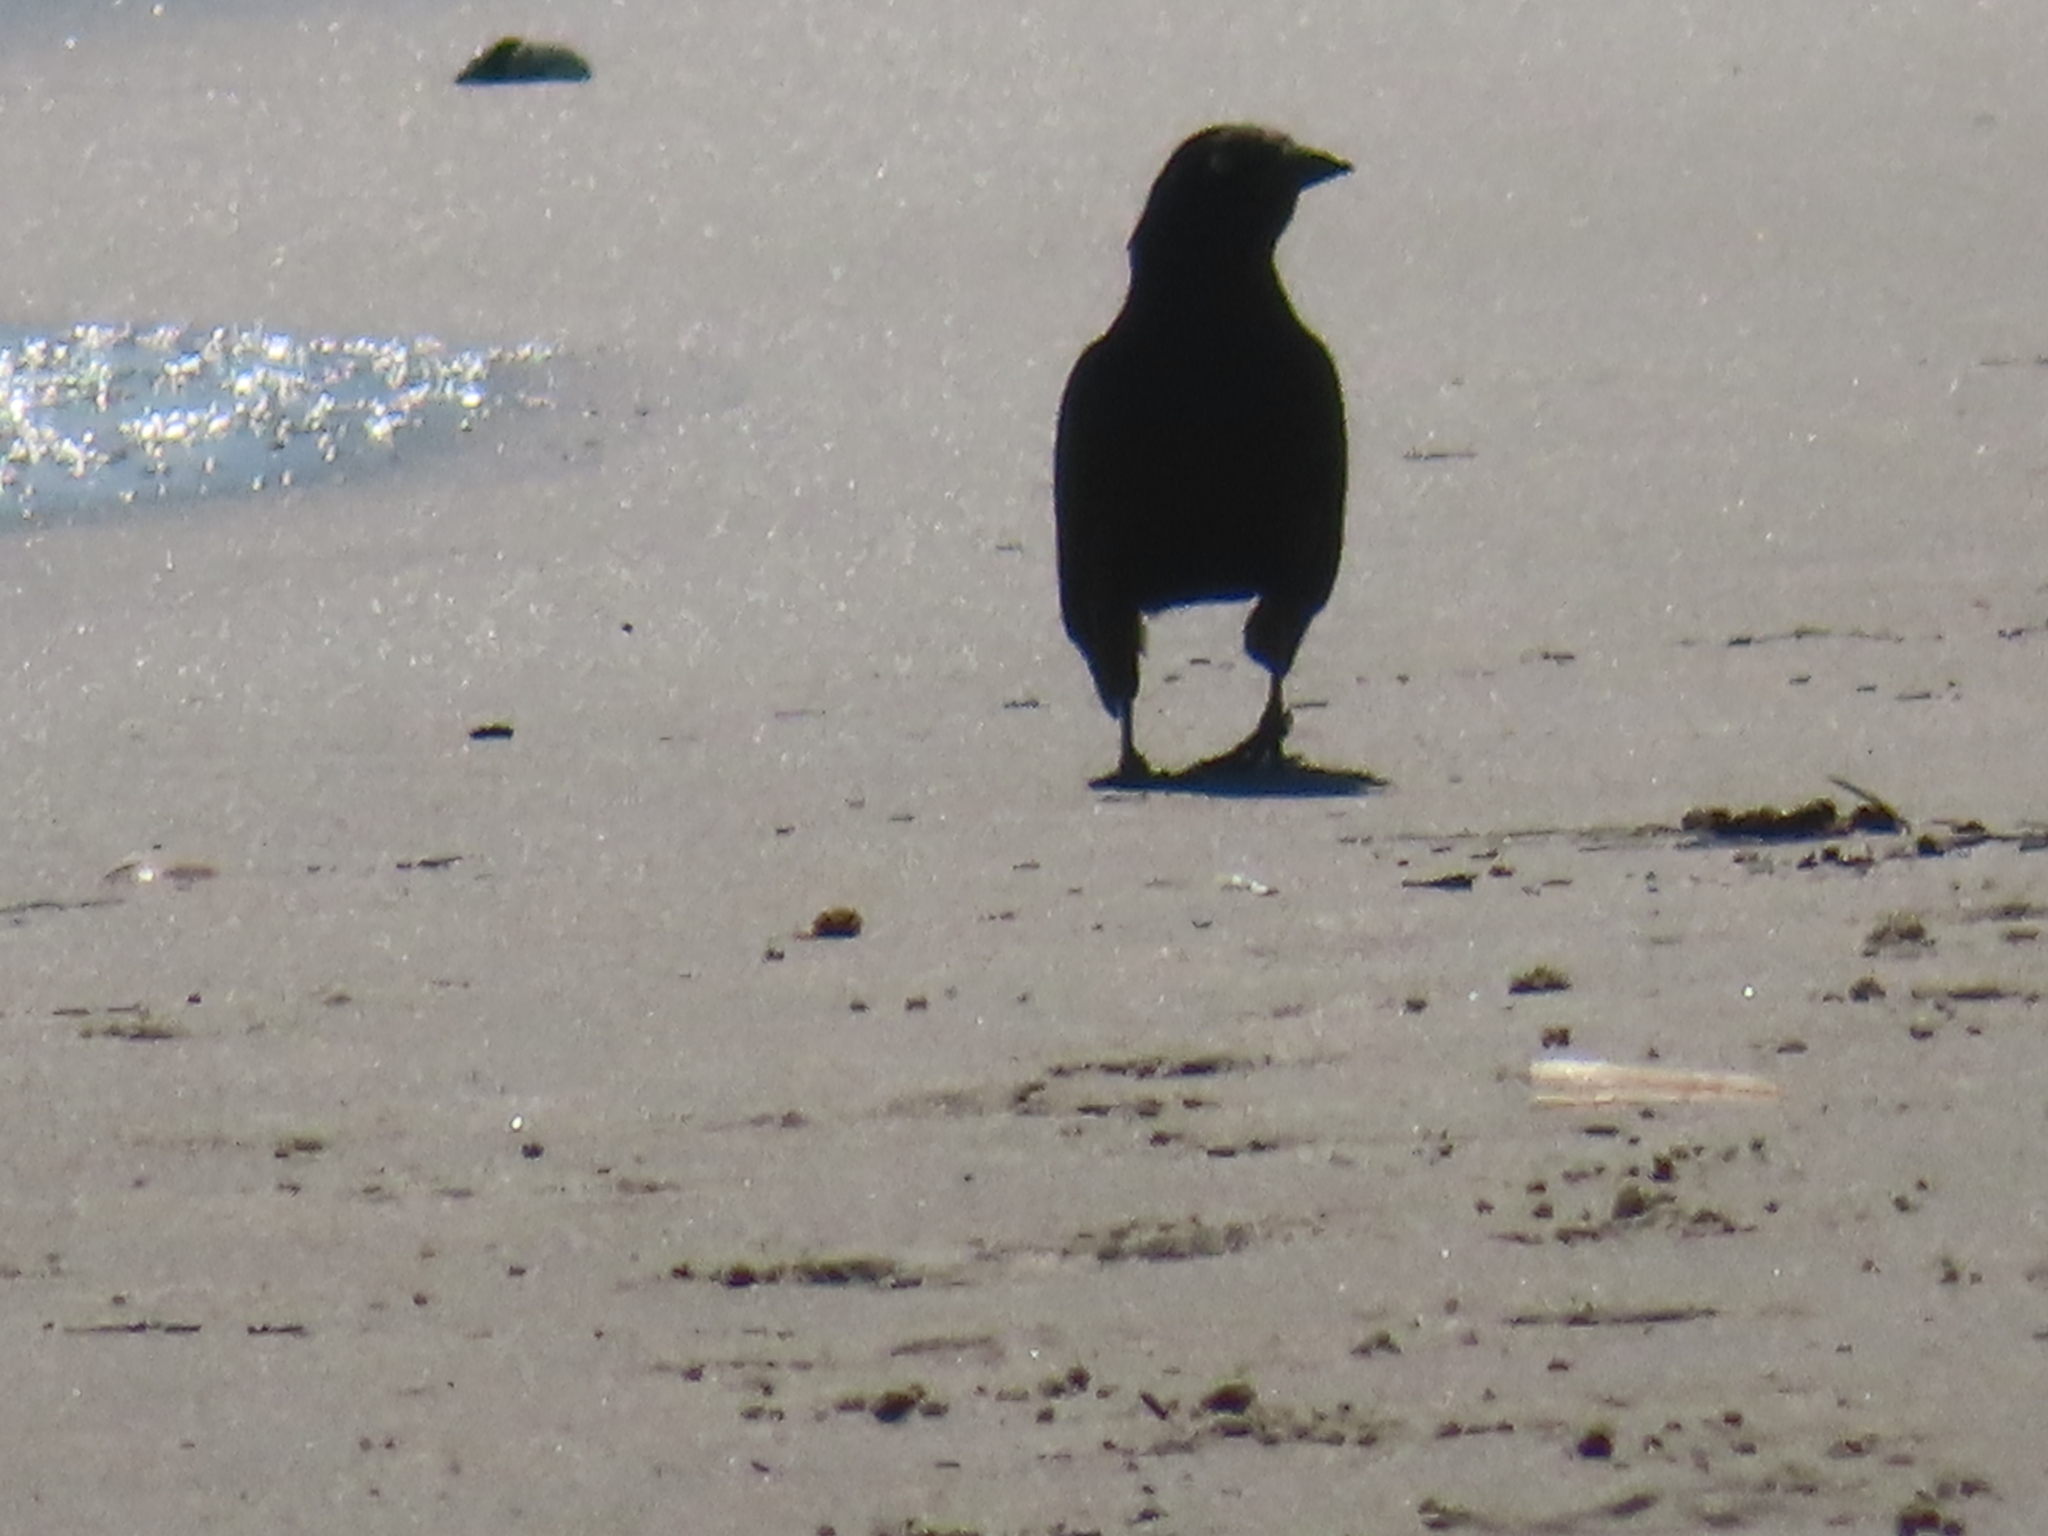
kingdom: Animalia
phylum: Chordata
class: Aves
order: Passeriformes
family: Corvidae
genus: Corvus
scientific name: Corvus ossifragus
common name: Fish crow
